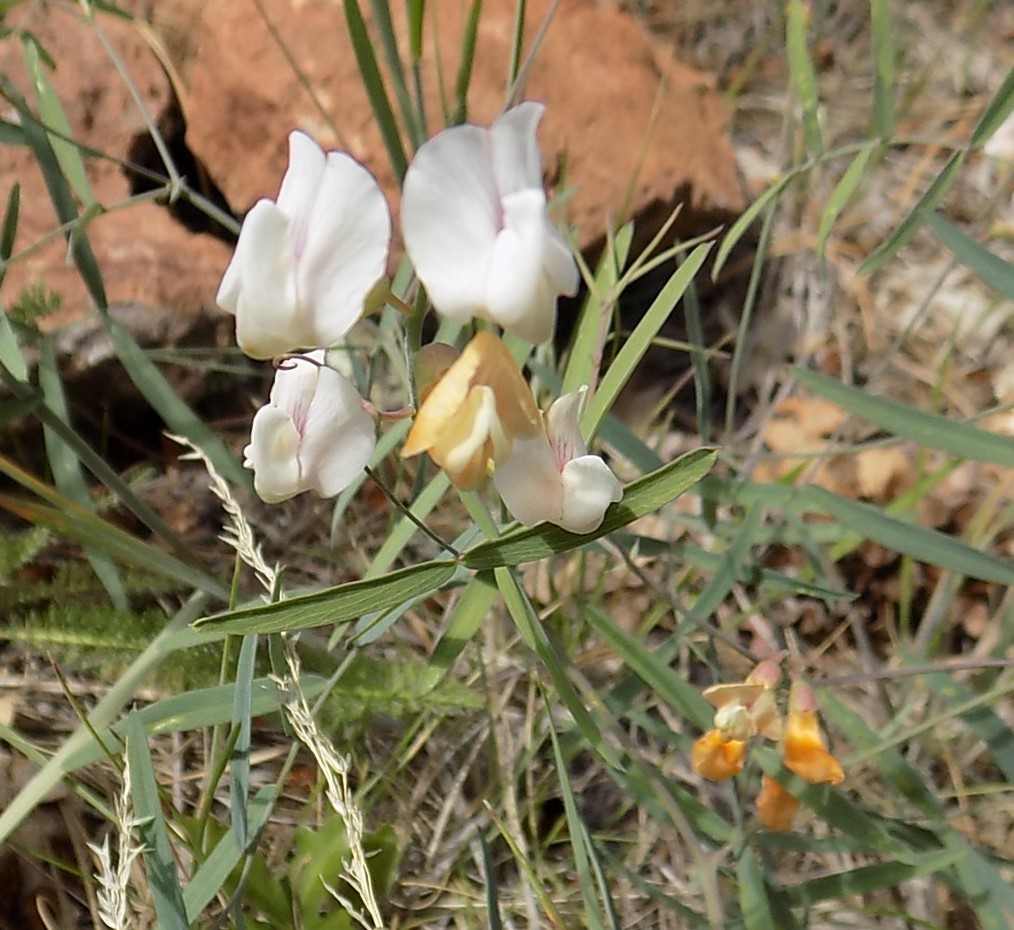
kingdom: Plantae
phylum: Tracheophyta
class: Magnoliopsida
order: Fabales
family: Fabaceae
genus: Lathyrus
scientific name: Lathyrus graminifolius
